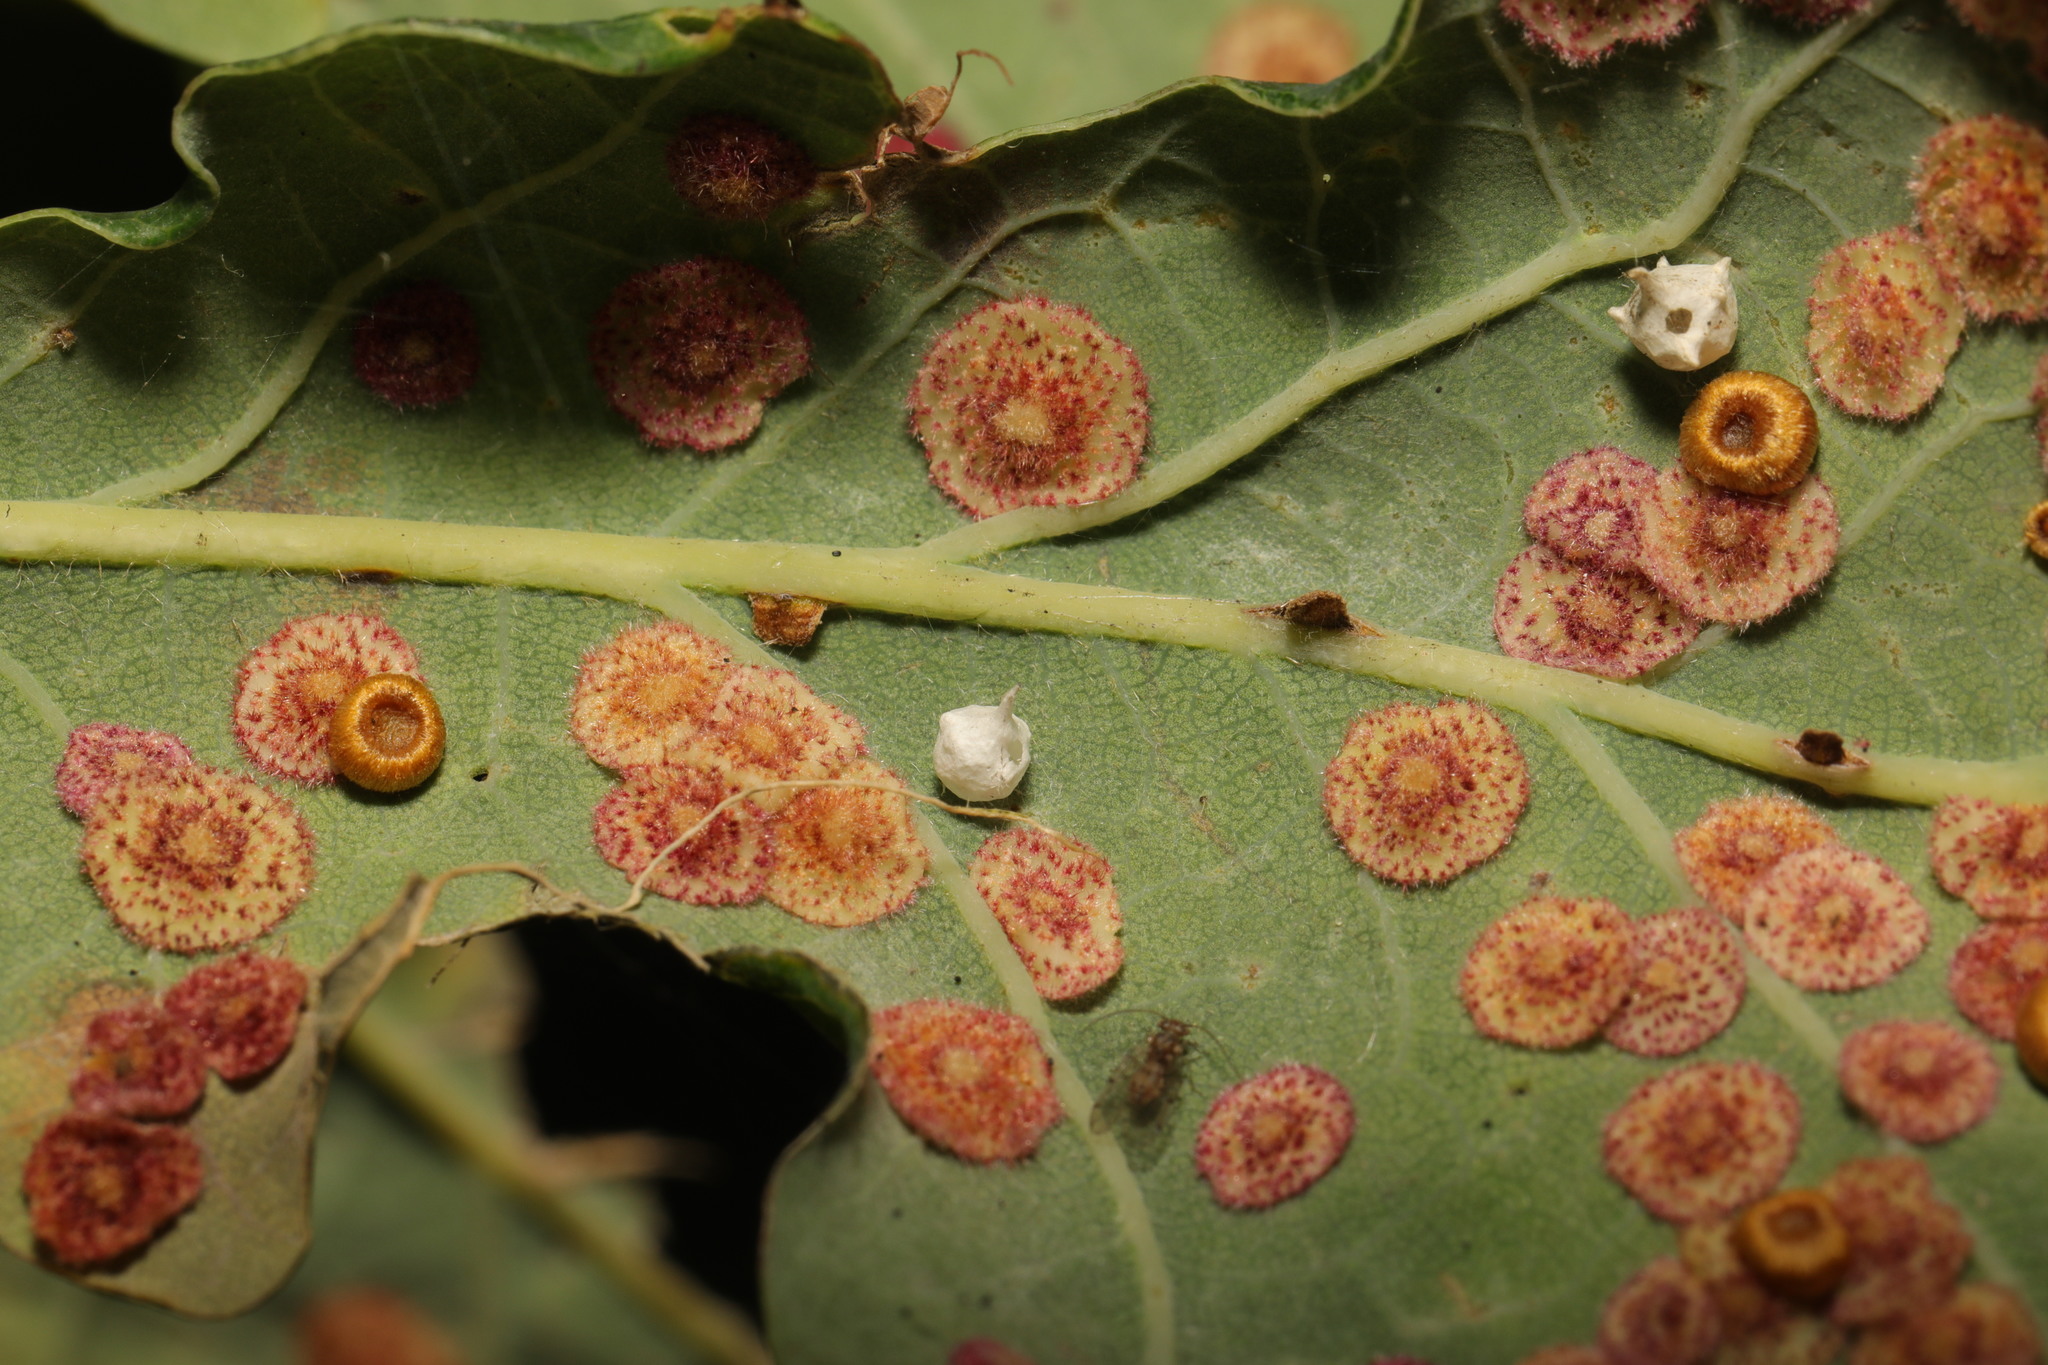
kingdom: Animalia
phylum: Arthropoda
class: Arachnida
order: Araneae
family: Theridiidae
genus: Paidiscura
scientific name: Paidiscura pallens
